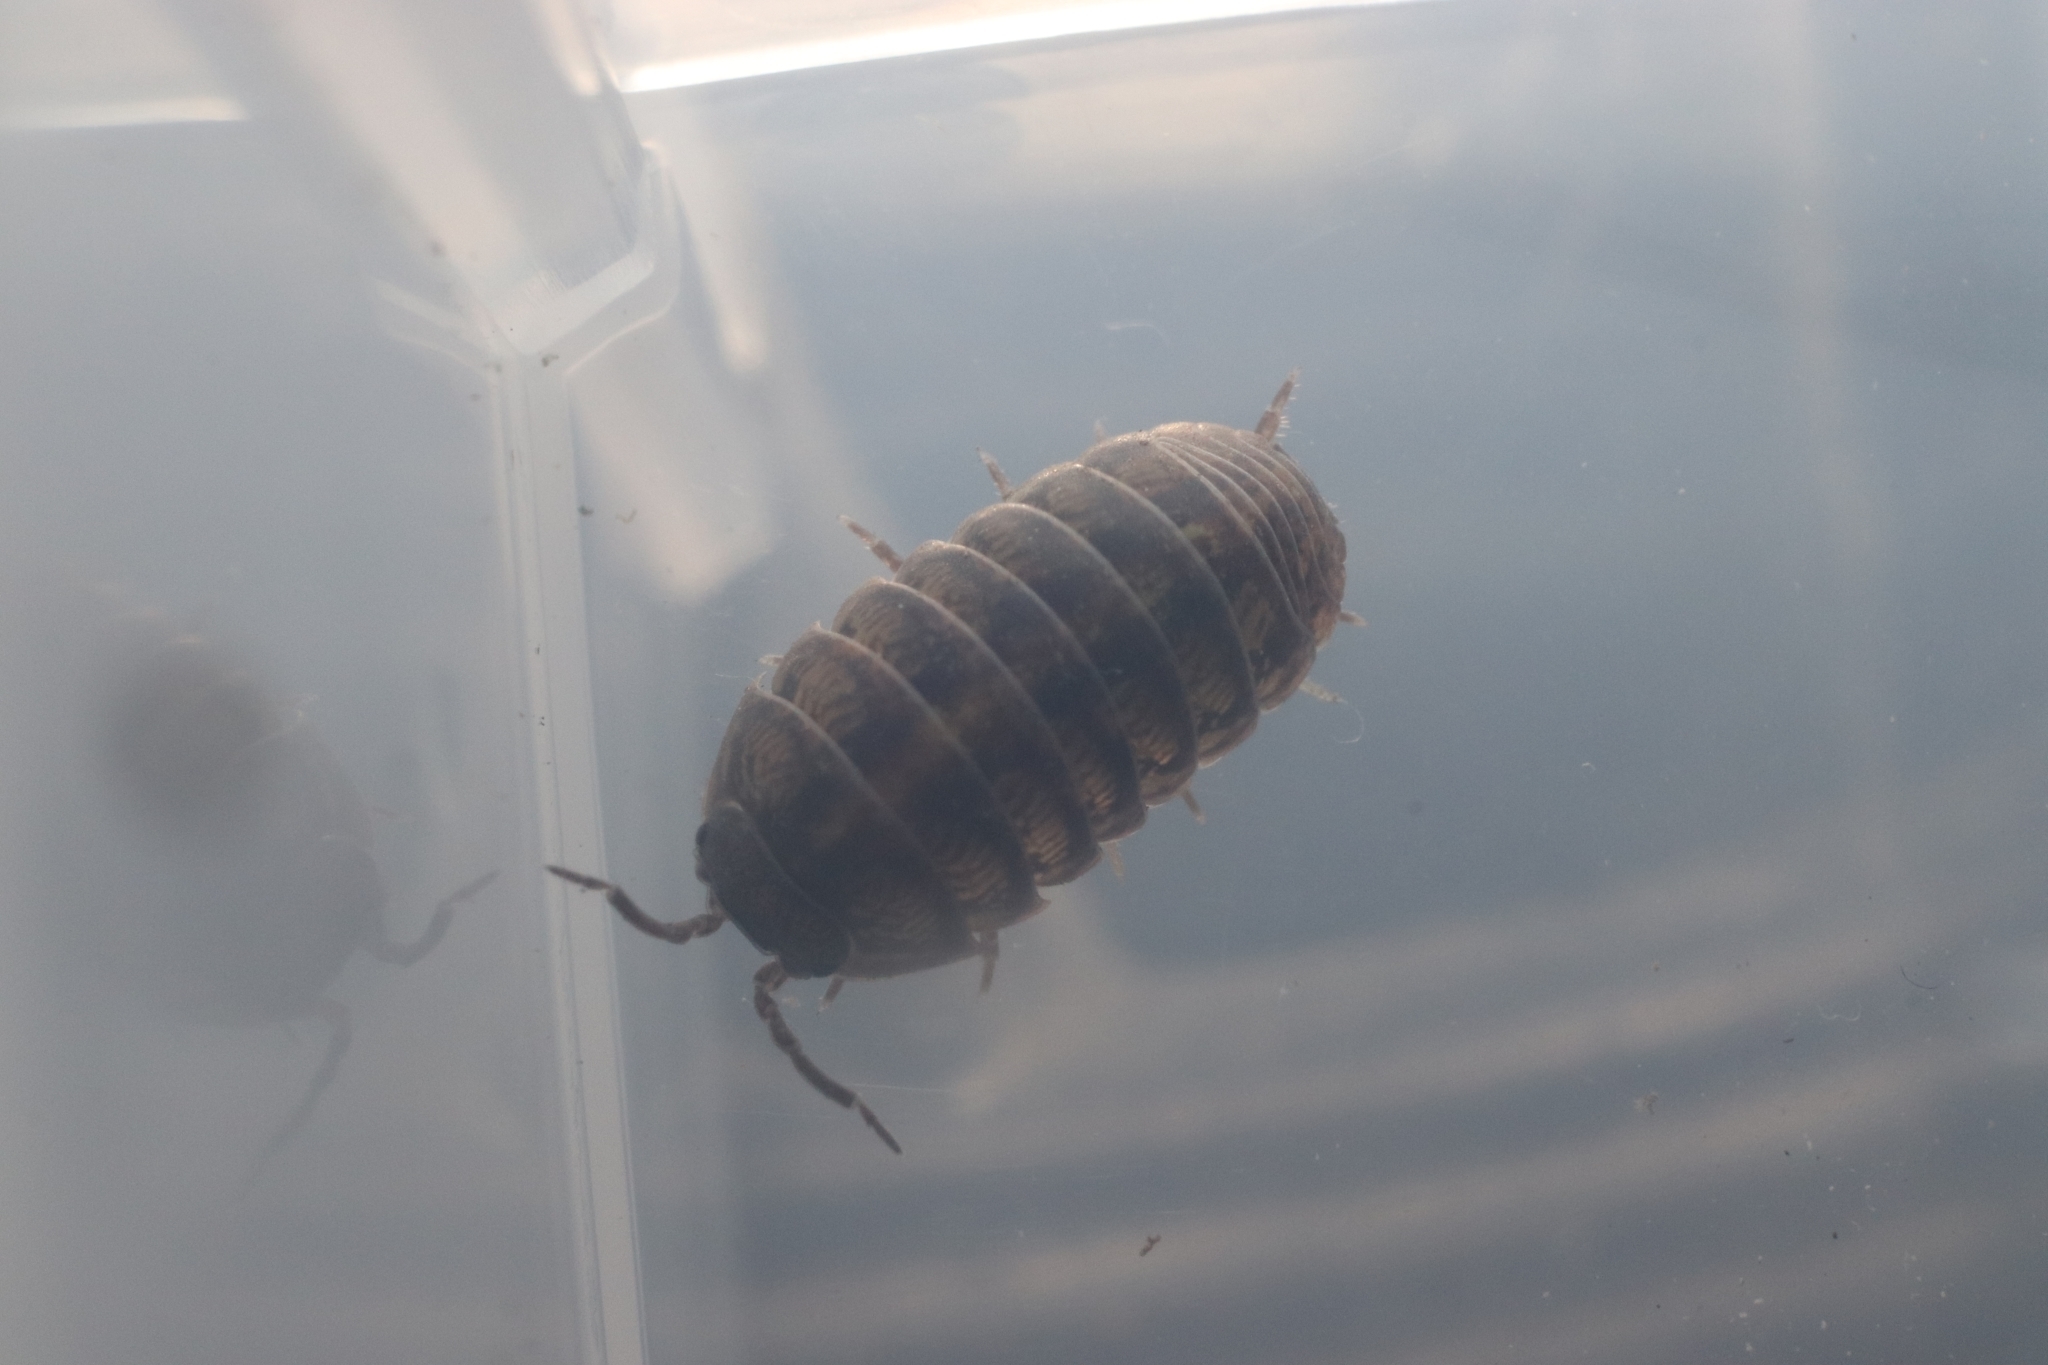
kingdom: Animalia
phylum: Arthropoda
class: Malacostraca
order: Isopoda
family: Armadillidiidae
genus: Armadillidium
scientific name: Armadillidium vulgare
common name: Common pill woodlouse
